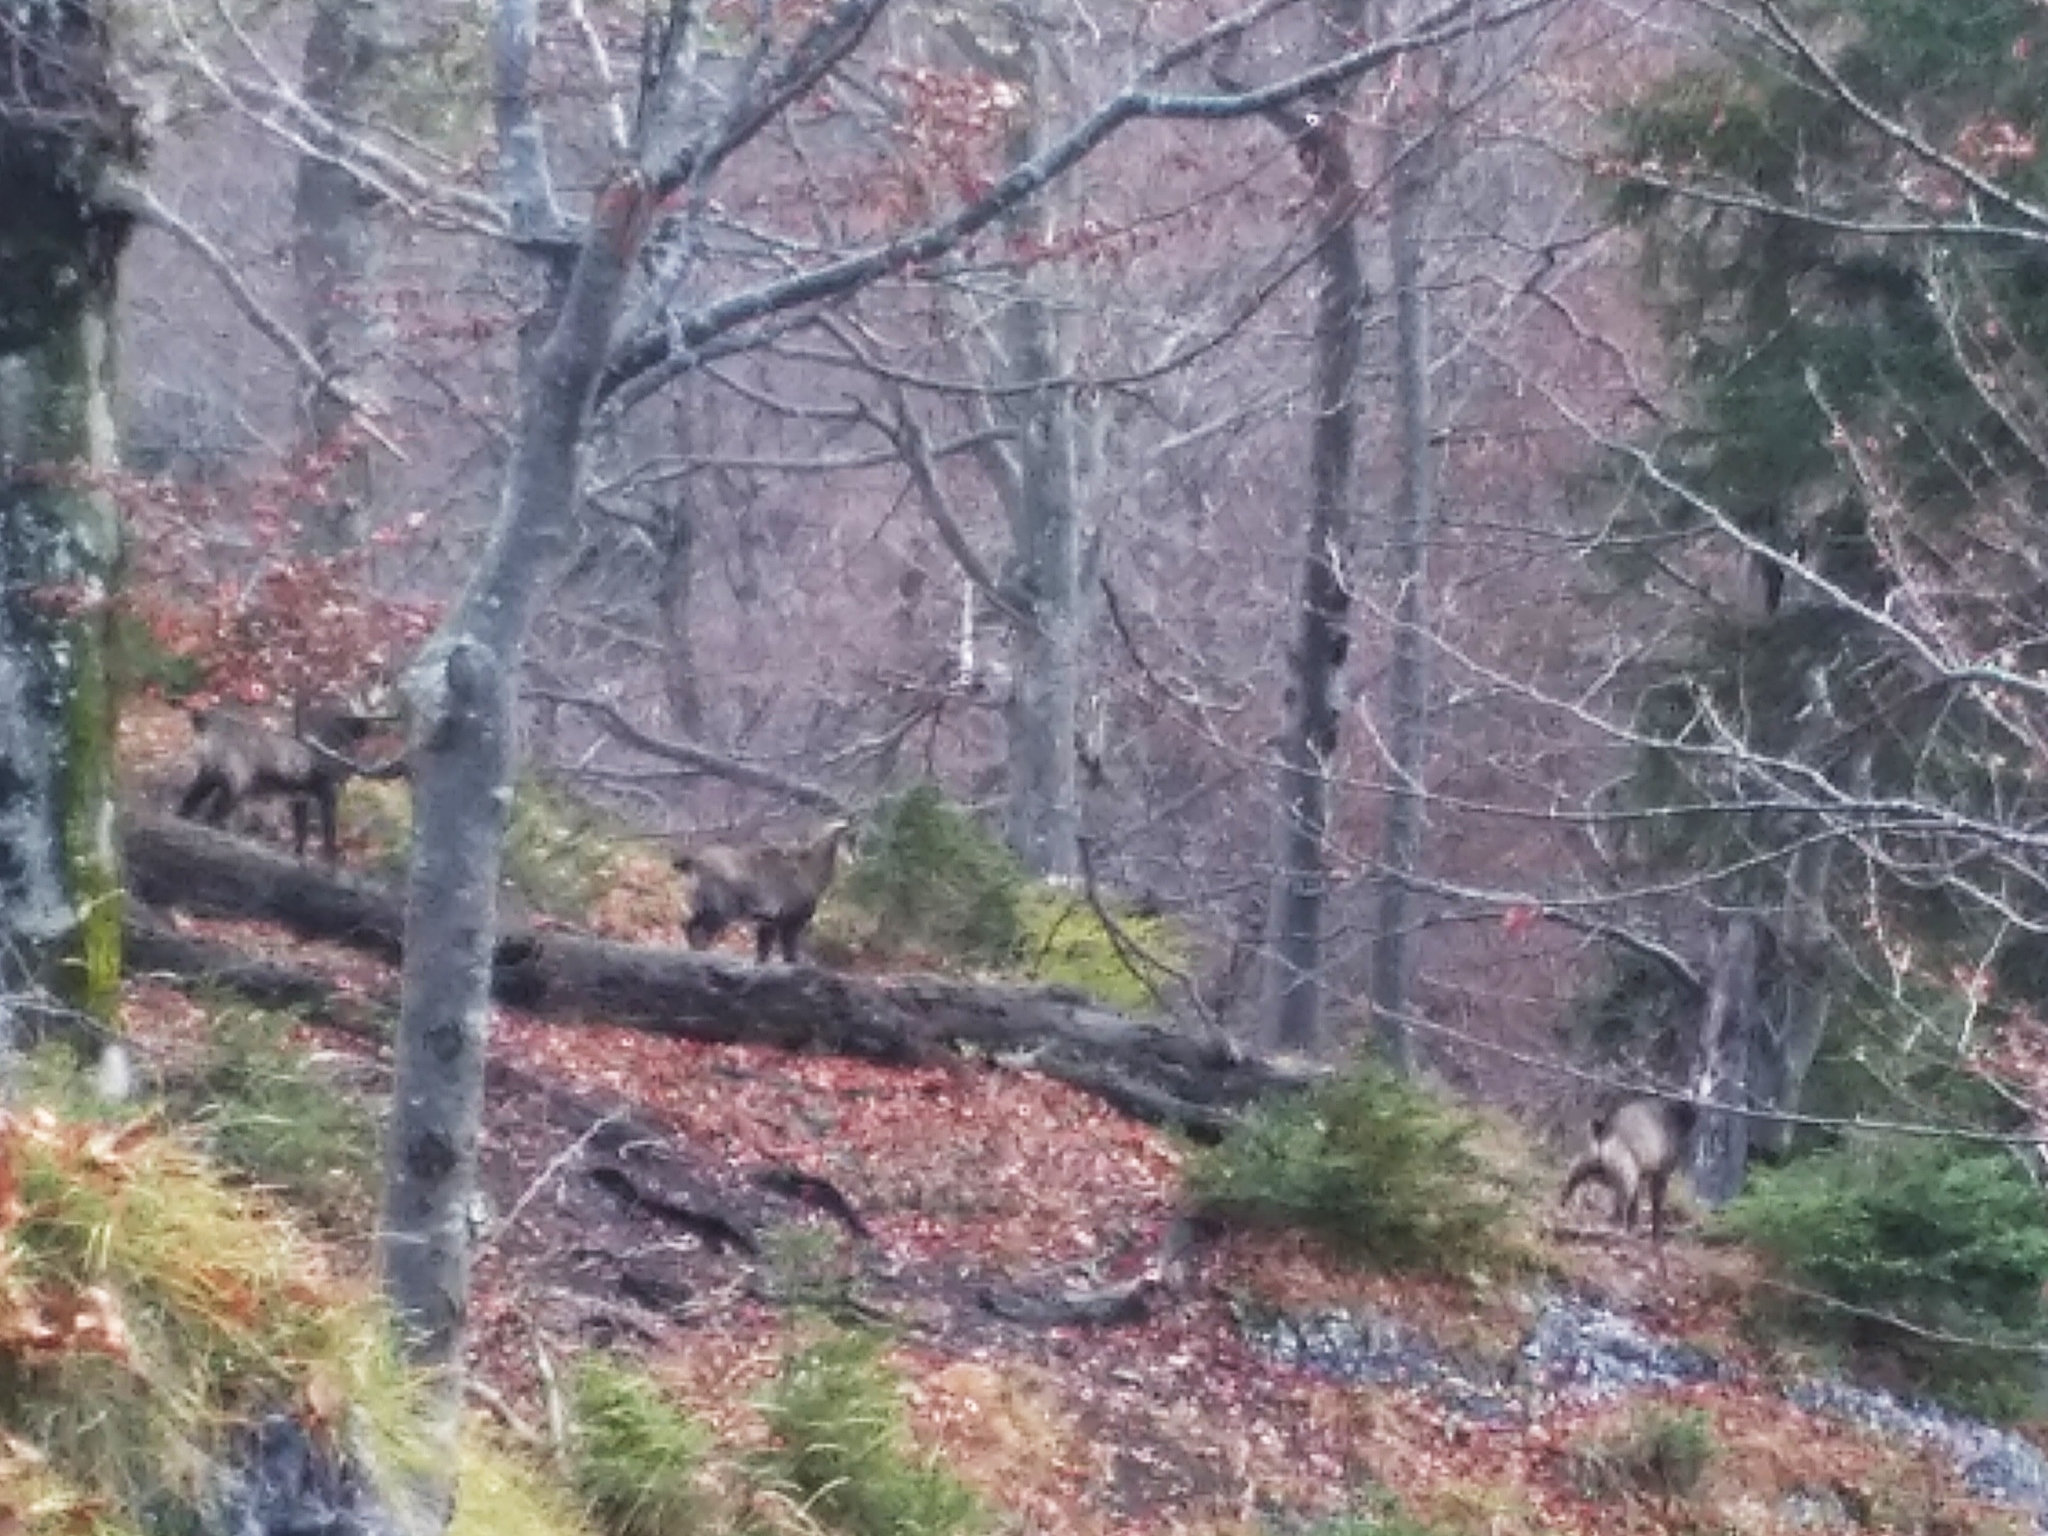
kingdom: Animalia
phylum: Chordata
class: Mammalia
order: Artiodactyla
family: Bovidae
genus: Rupicapra
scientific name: Rupicapra rupicapra
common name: Chamois
